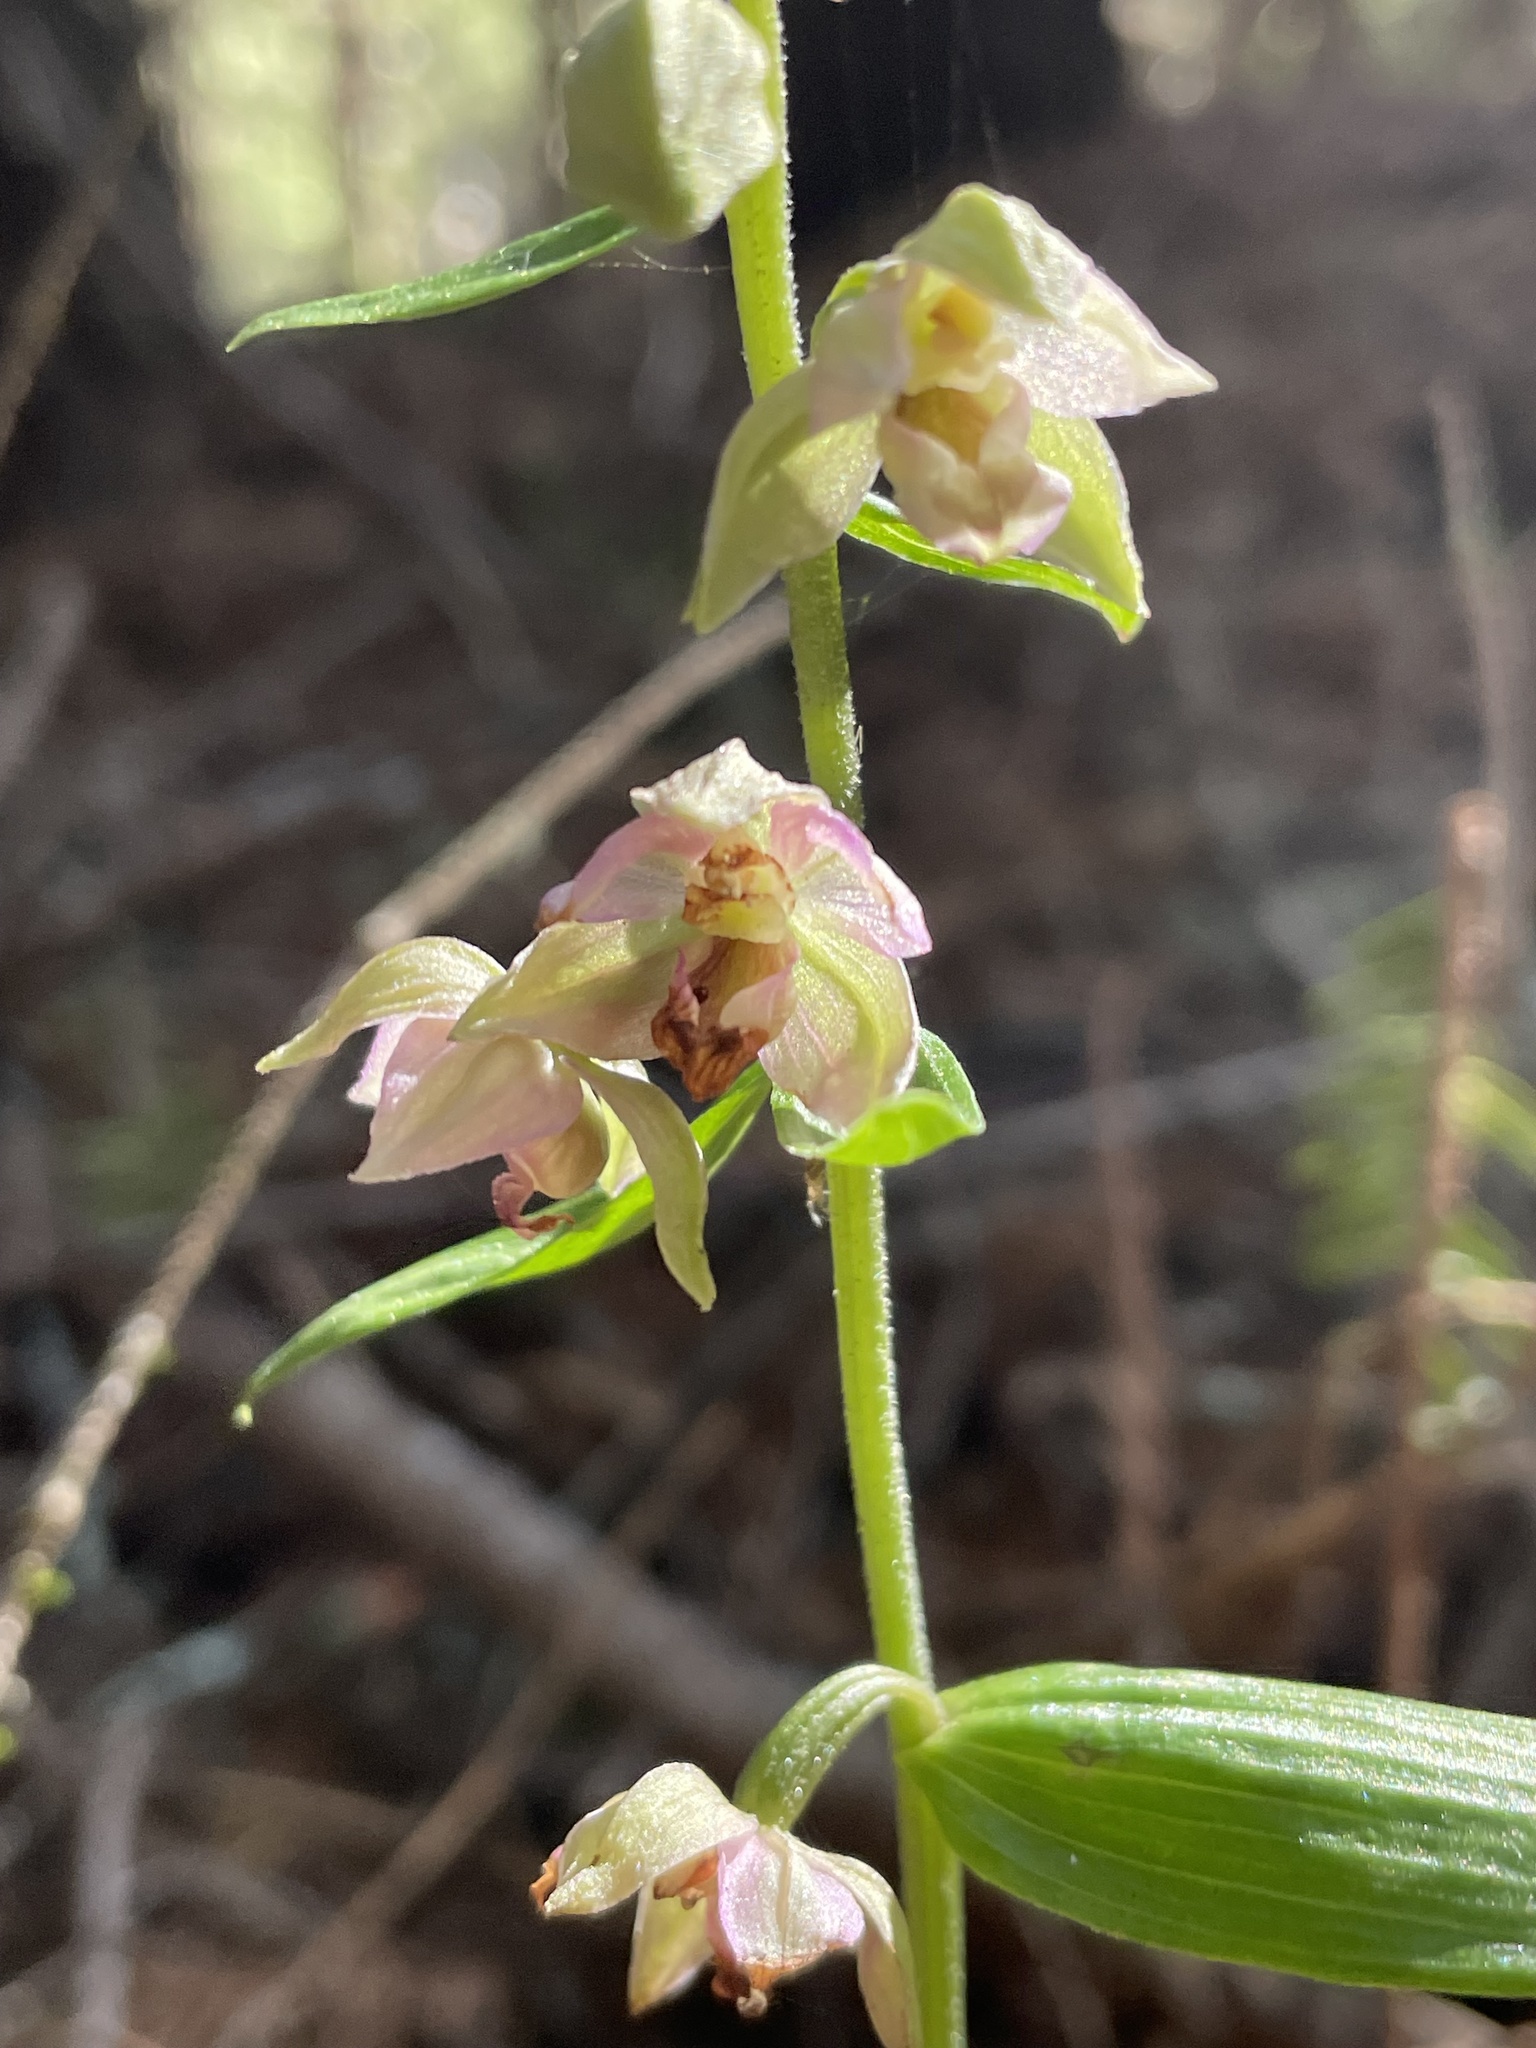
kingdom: Plantae
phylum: Tracheophyta
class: Liliopsida
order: Asparagales
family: Orchidaceae
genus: Epipactis
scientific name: Epipactis helleborine
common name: Broad-leaved helleborine
